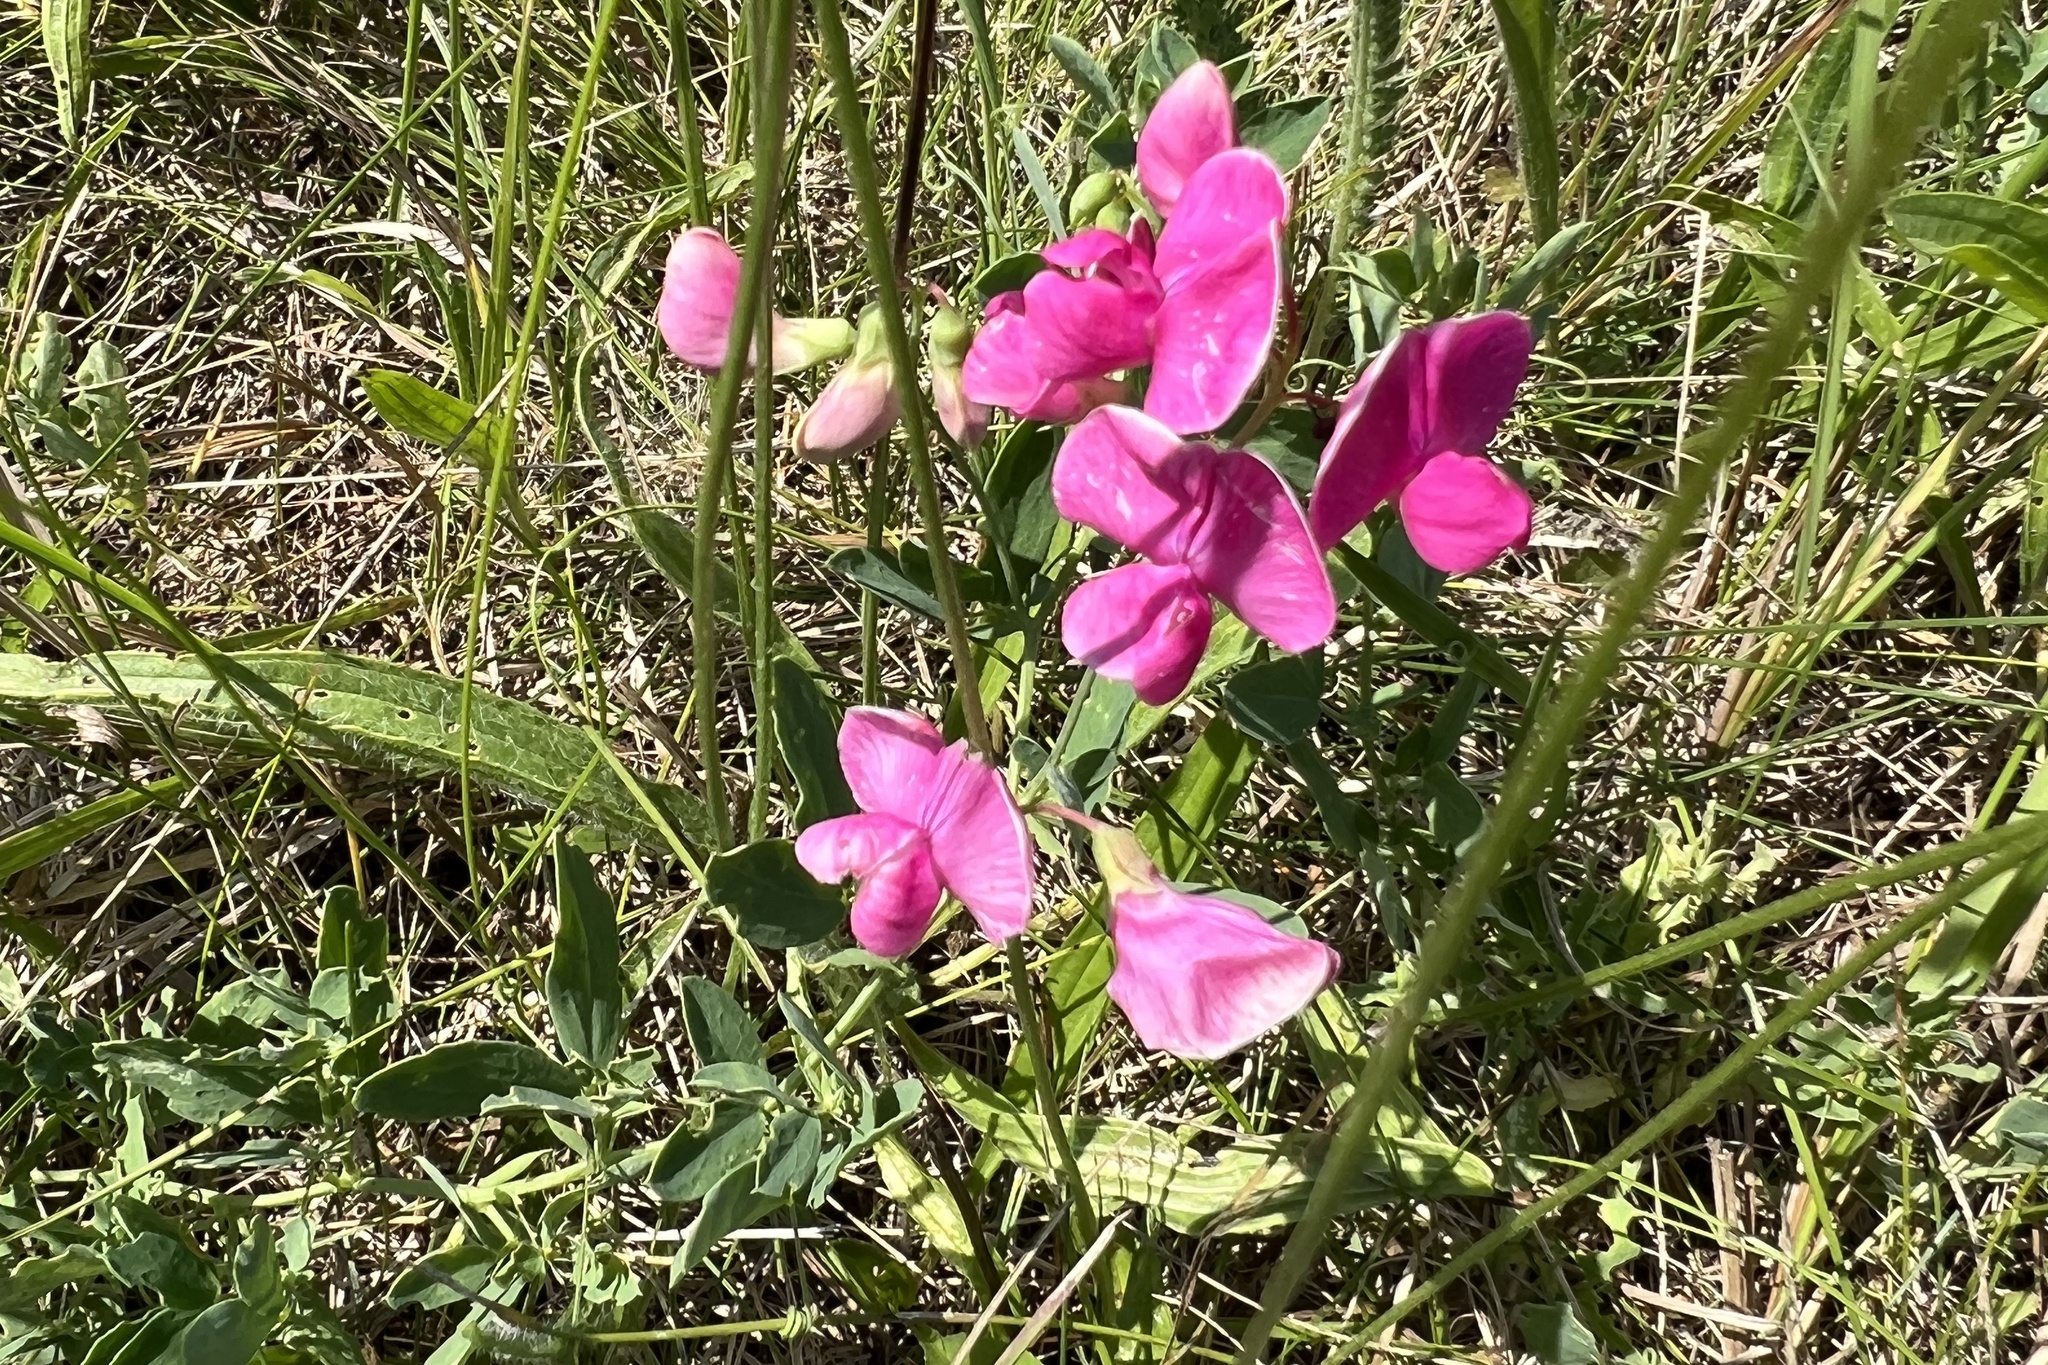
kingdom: Plantae
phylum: Tracheophyta
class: Magnoliopsida
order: Fabales
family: Fabaceae
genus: Lathyrus
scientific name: Lathyrus tuberosus
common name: Tuberous pea
